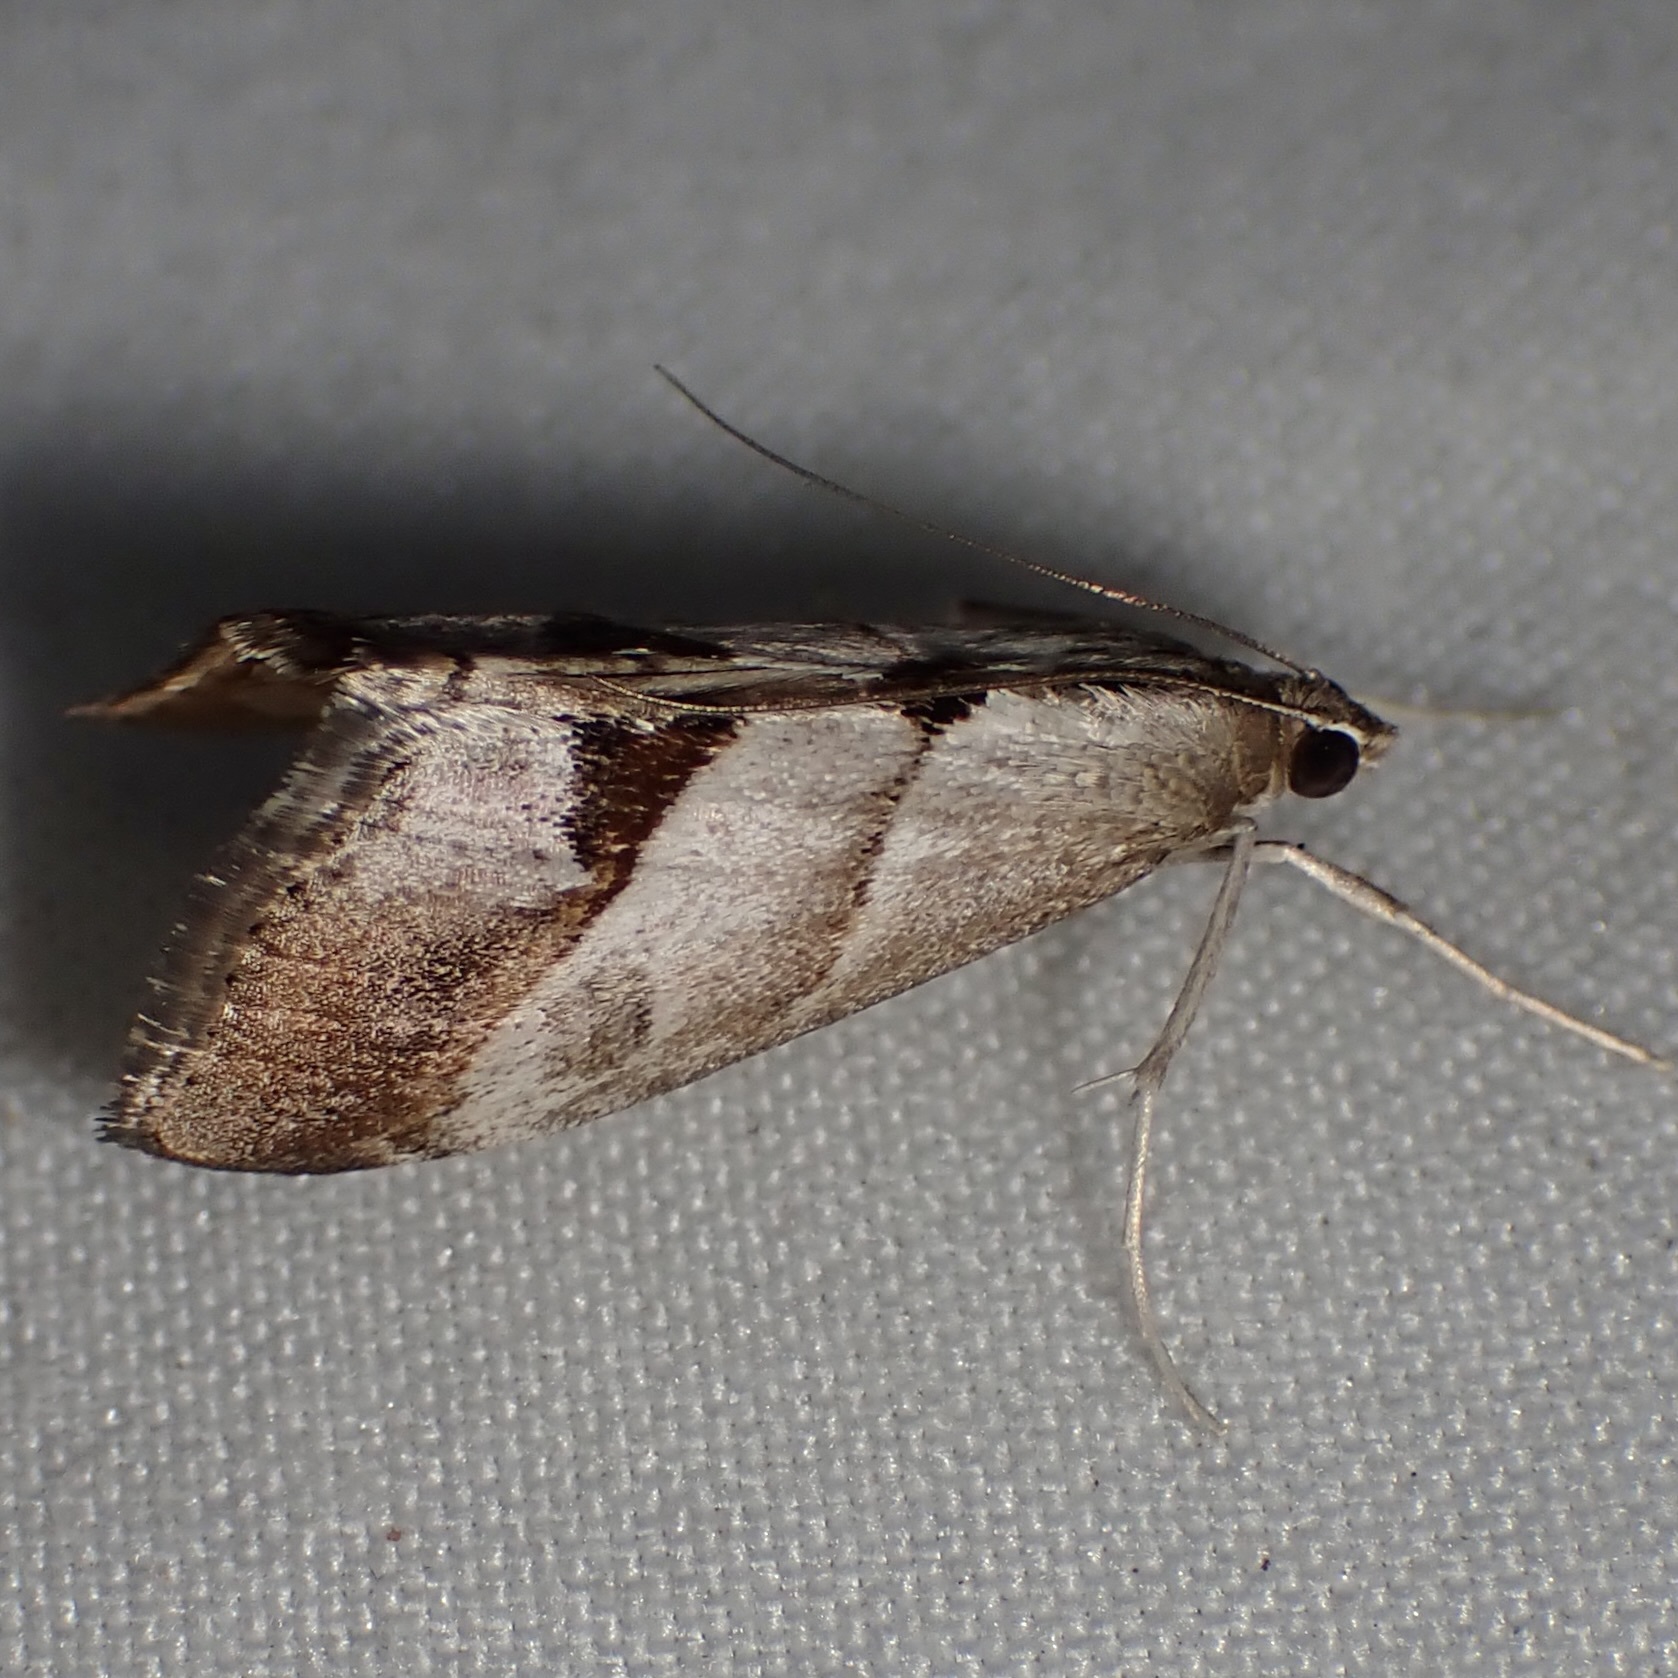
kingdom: Animalia
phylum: Arthropoda
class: Insecta
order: Lepidoptera
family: Crambidae
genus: Evergestis
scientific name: Evergestis triangulalis
